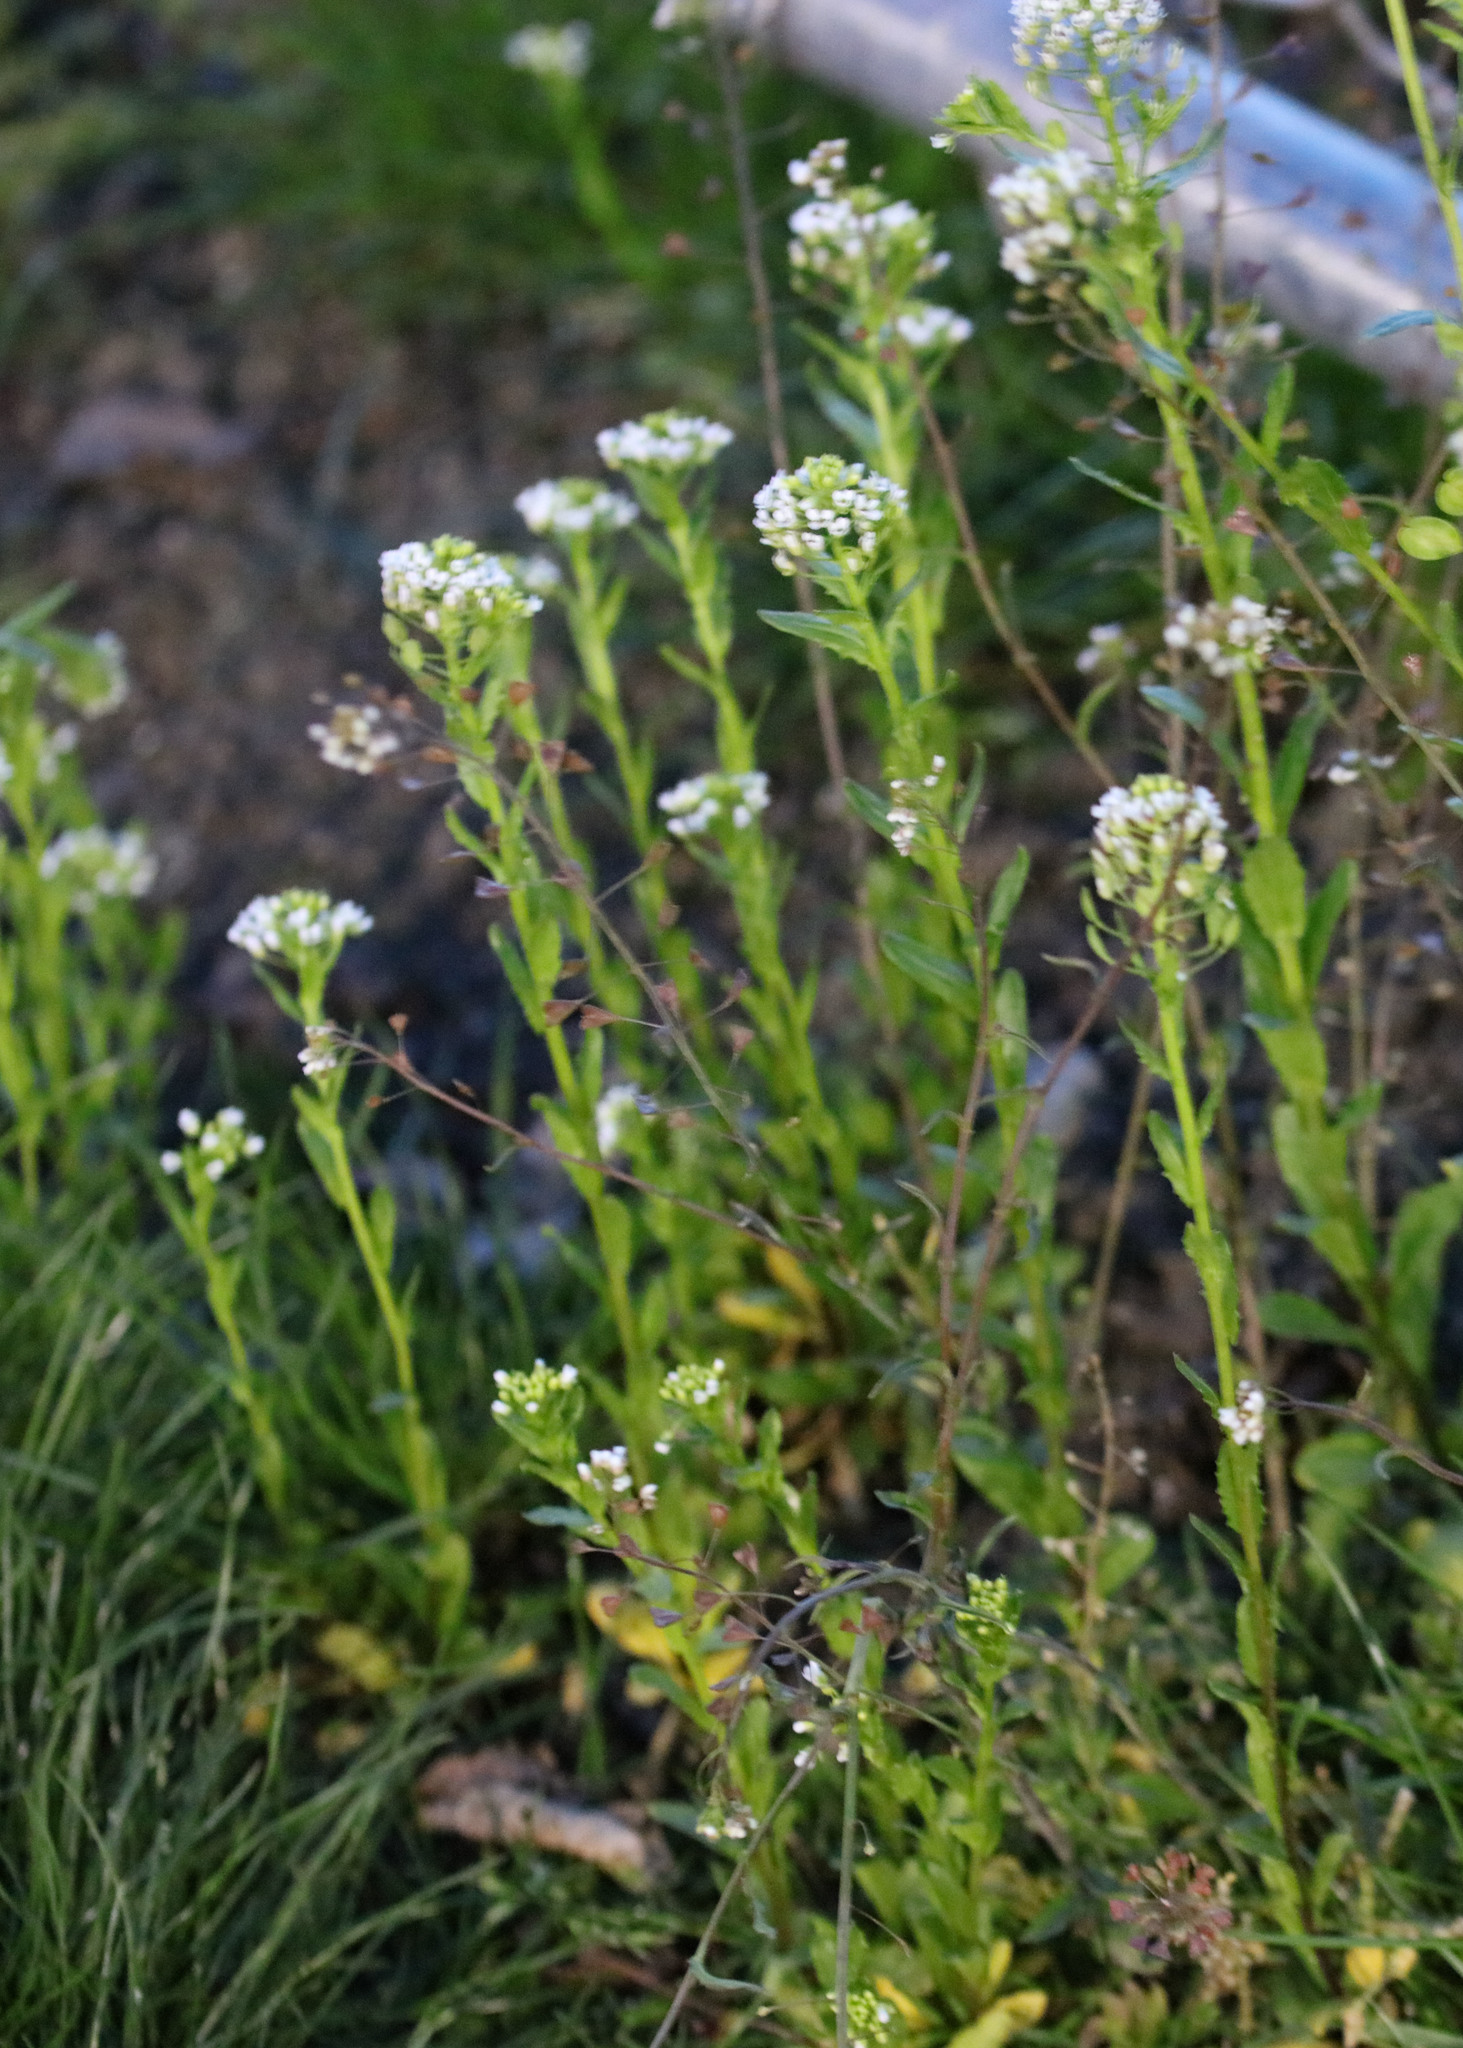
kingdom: Plantae
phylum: Tracheophyta
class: Magnoliopsida
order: Brassicales
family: Brassicaceae
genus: Thlaspi
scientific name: Thlaspi arvense
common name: Field pennycress
